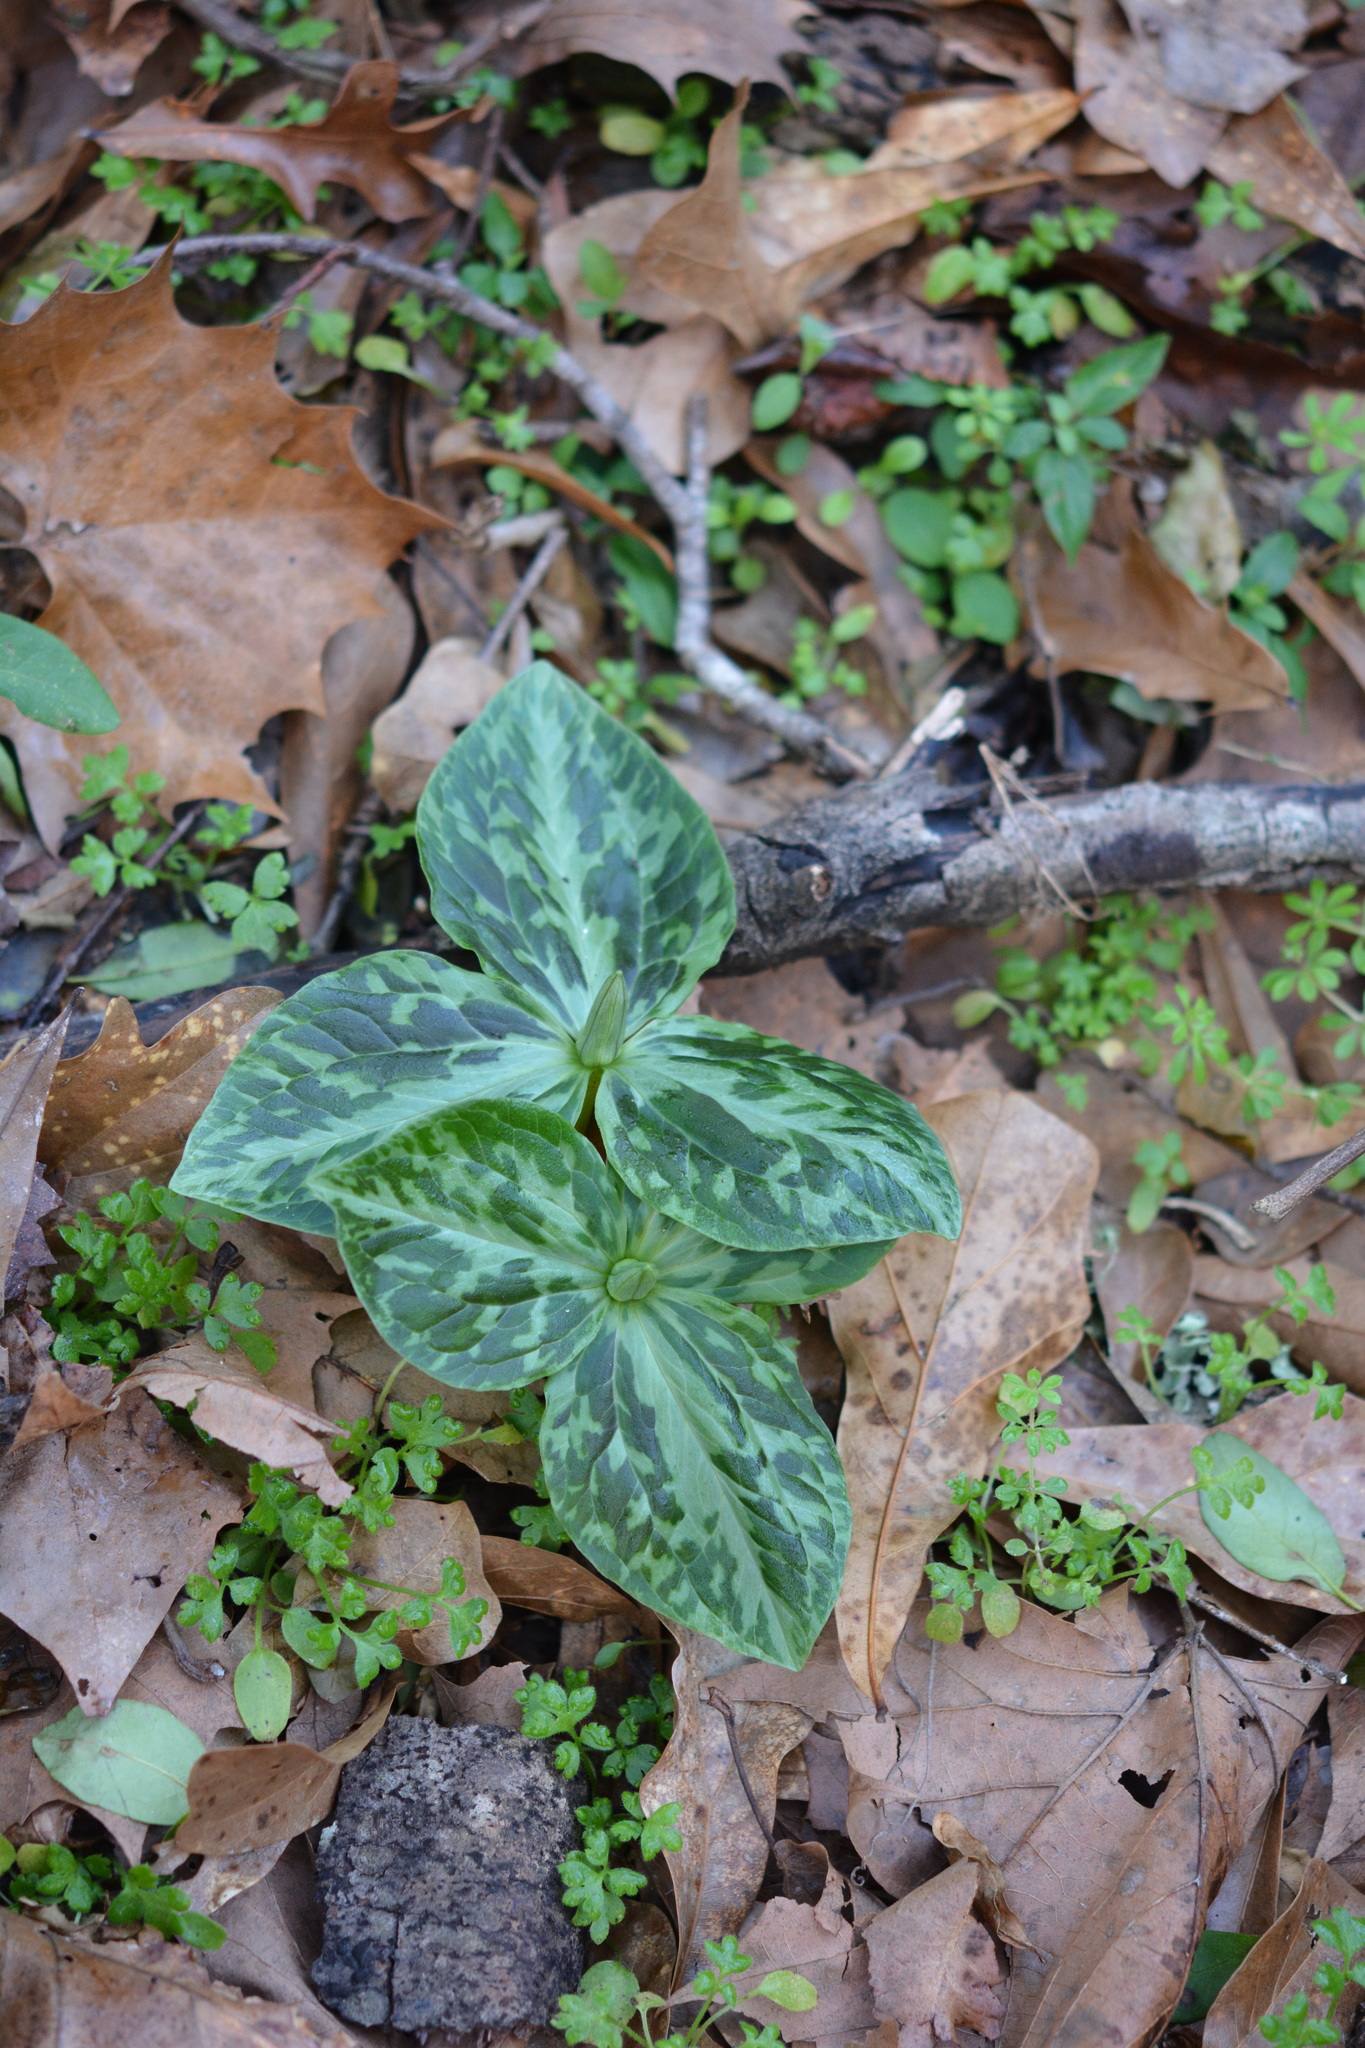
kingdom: Plantae
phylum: Tracheophyta
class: Liliopsida
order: Liliales
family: Melanthiaceae
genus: Trillium
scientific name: Trillium foetidissimum
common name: Mississippi river trillium
